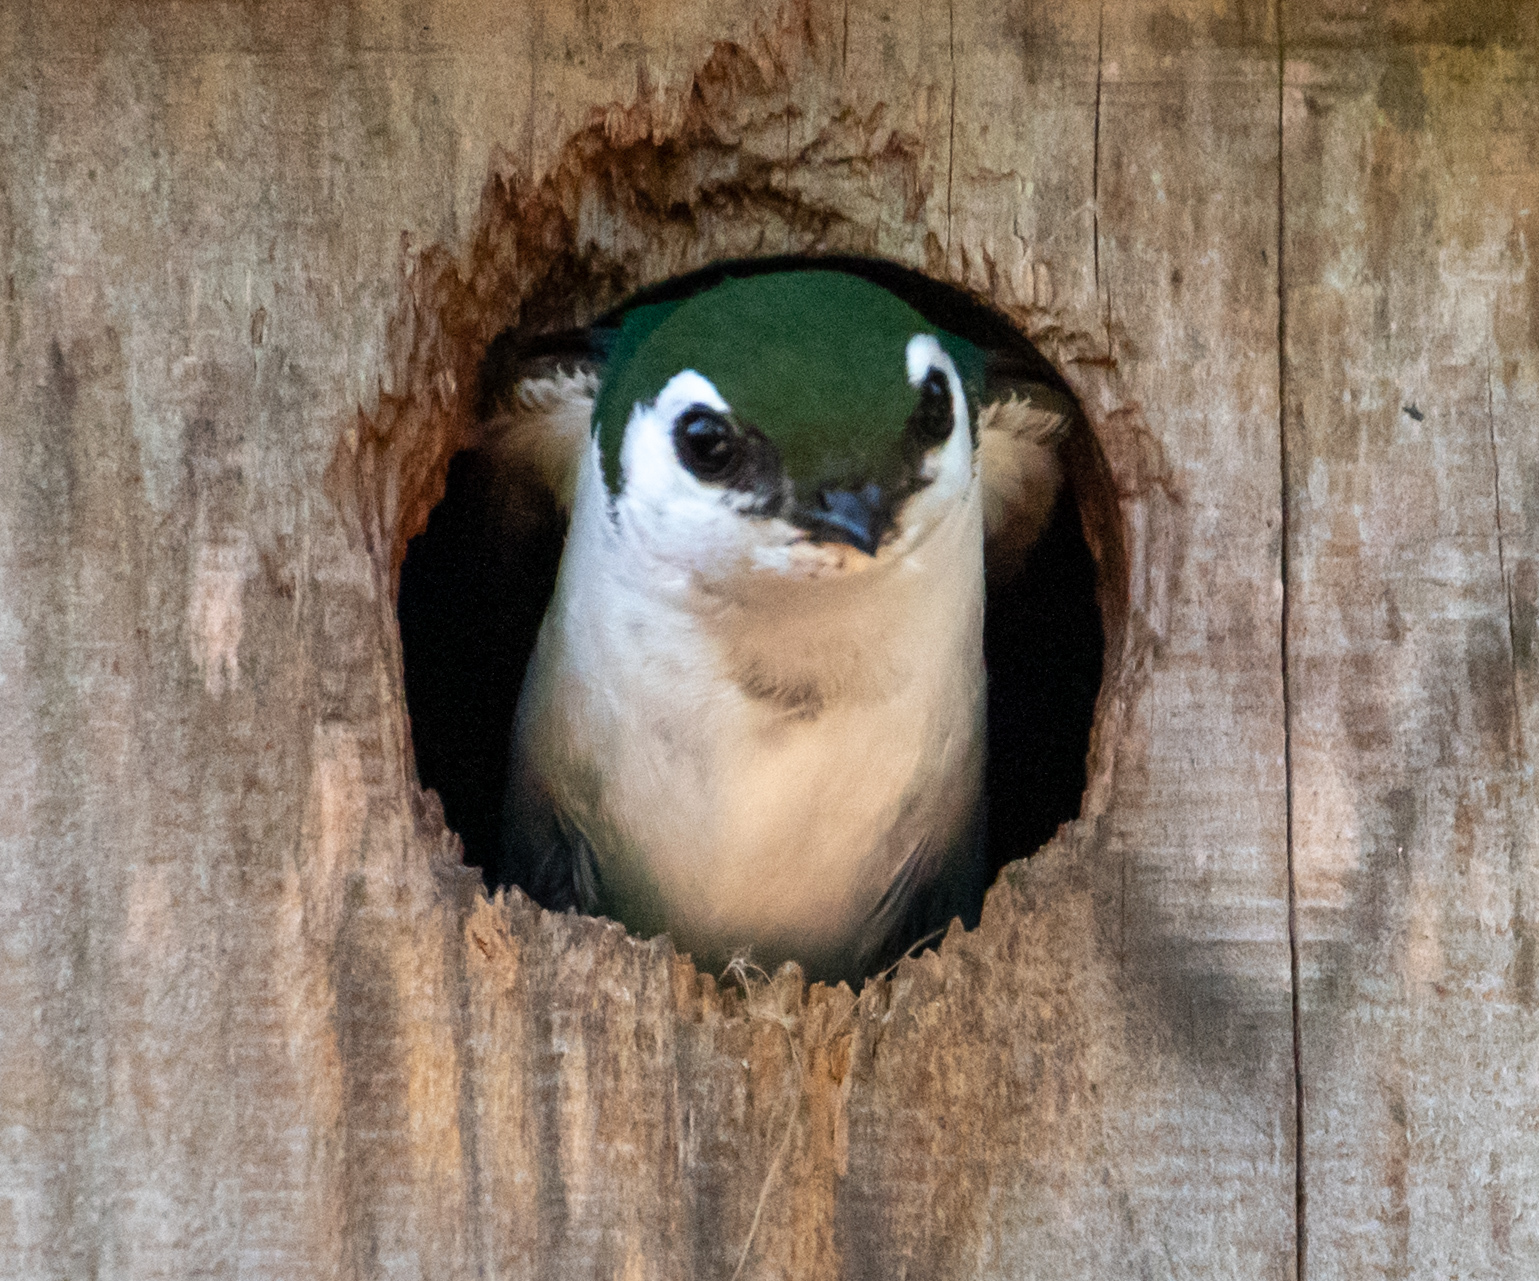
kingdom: Animalia
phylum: Chordata
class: Aves
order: Passeriformes
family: Hirundinidae
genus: Tachycineta
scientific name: Tachycineta thalassina
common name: Violet-green swallow
